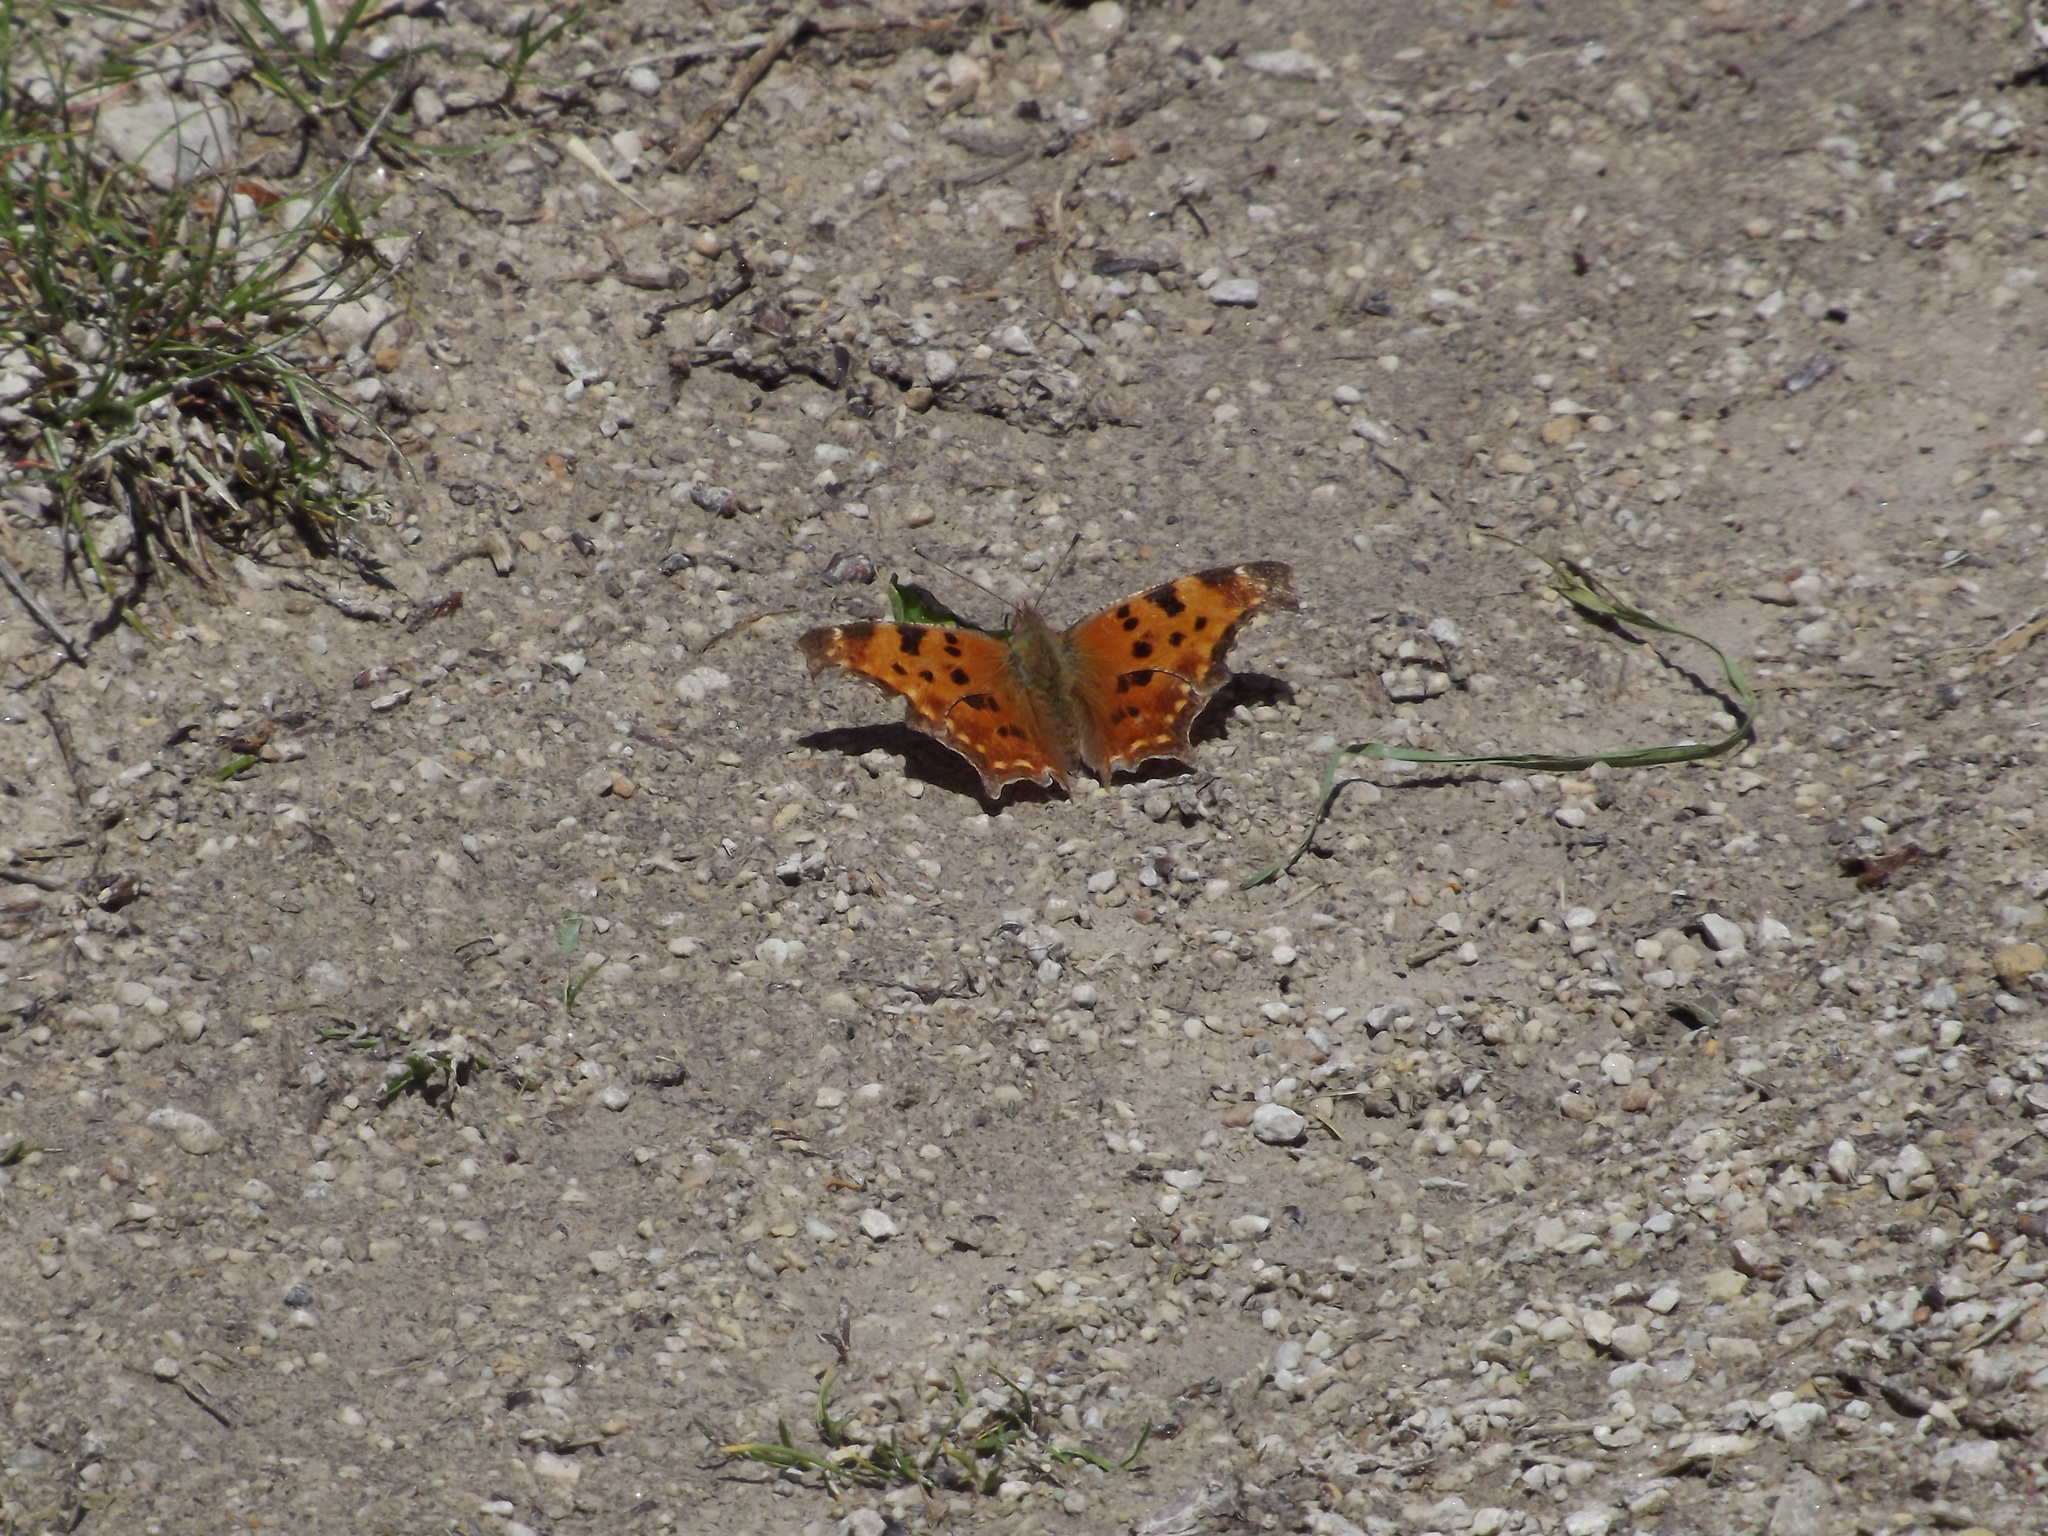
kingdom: Animalia
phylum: Arthropoda
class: Insecta
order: Lepidoptera
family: Nymphalidae
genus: Polygonia
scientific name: Polygonia comma
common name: Eastern comma
